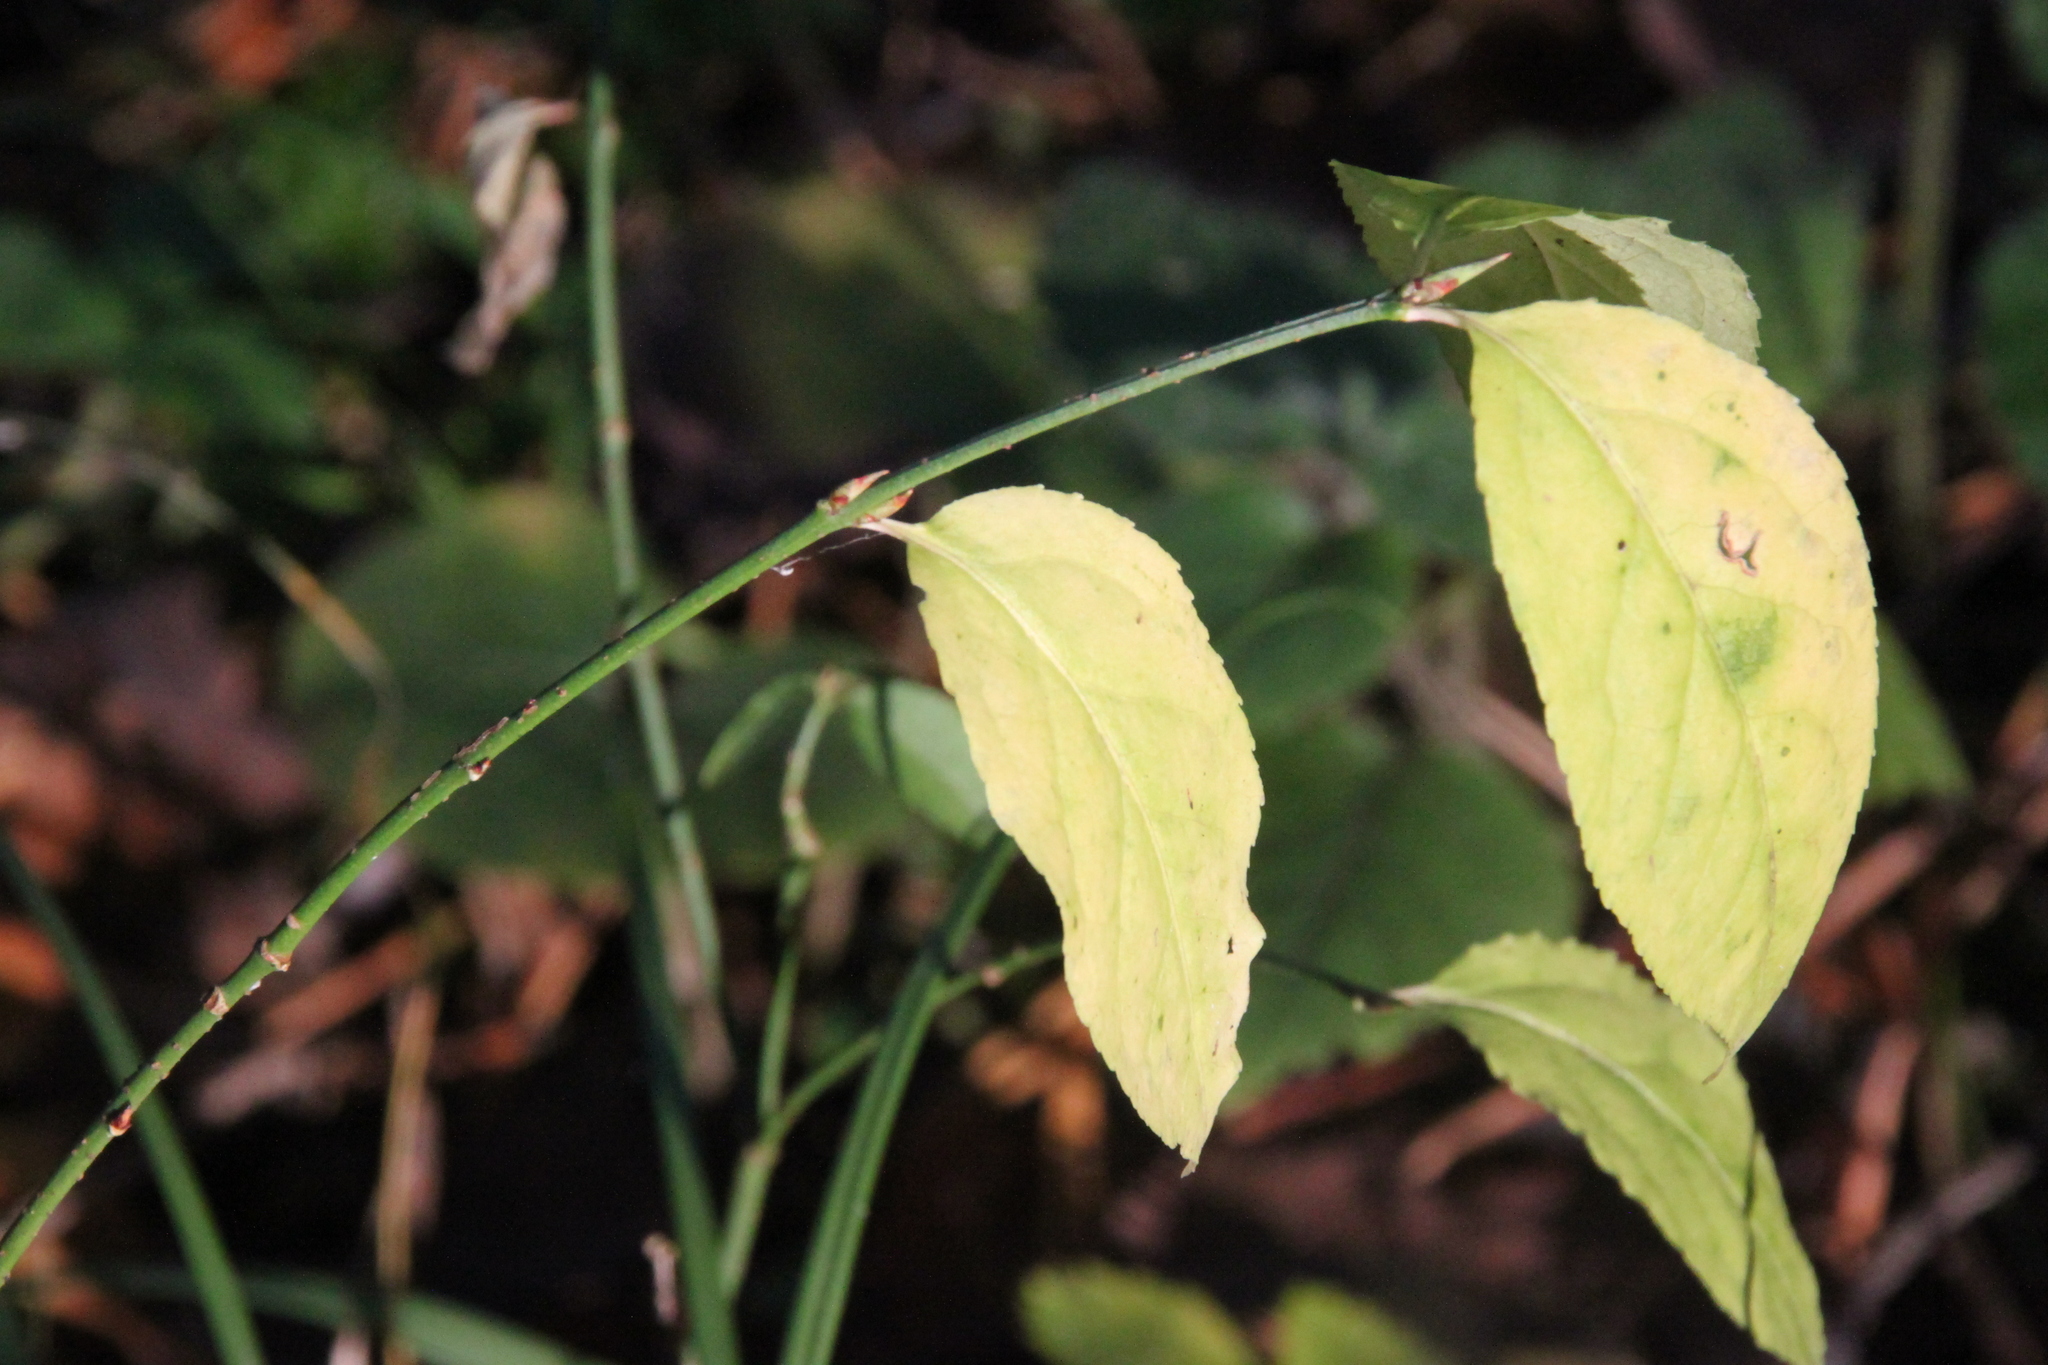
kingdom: Plantae
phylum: Tracheophyta
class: Magnoliopsida
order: Celastrales
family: Celastraceae
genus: Euonymus
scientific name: Euonymus verrucosus
